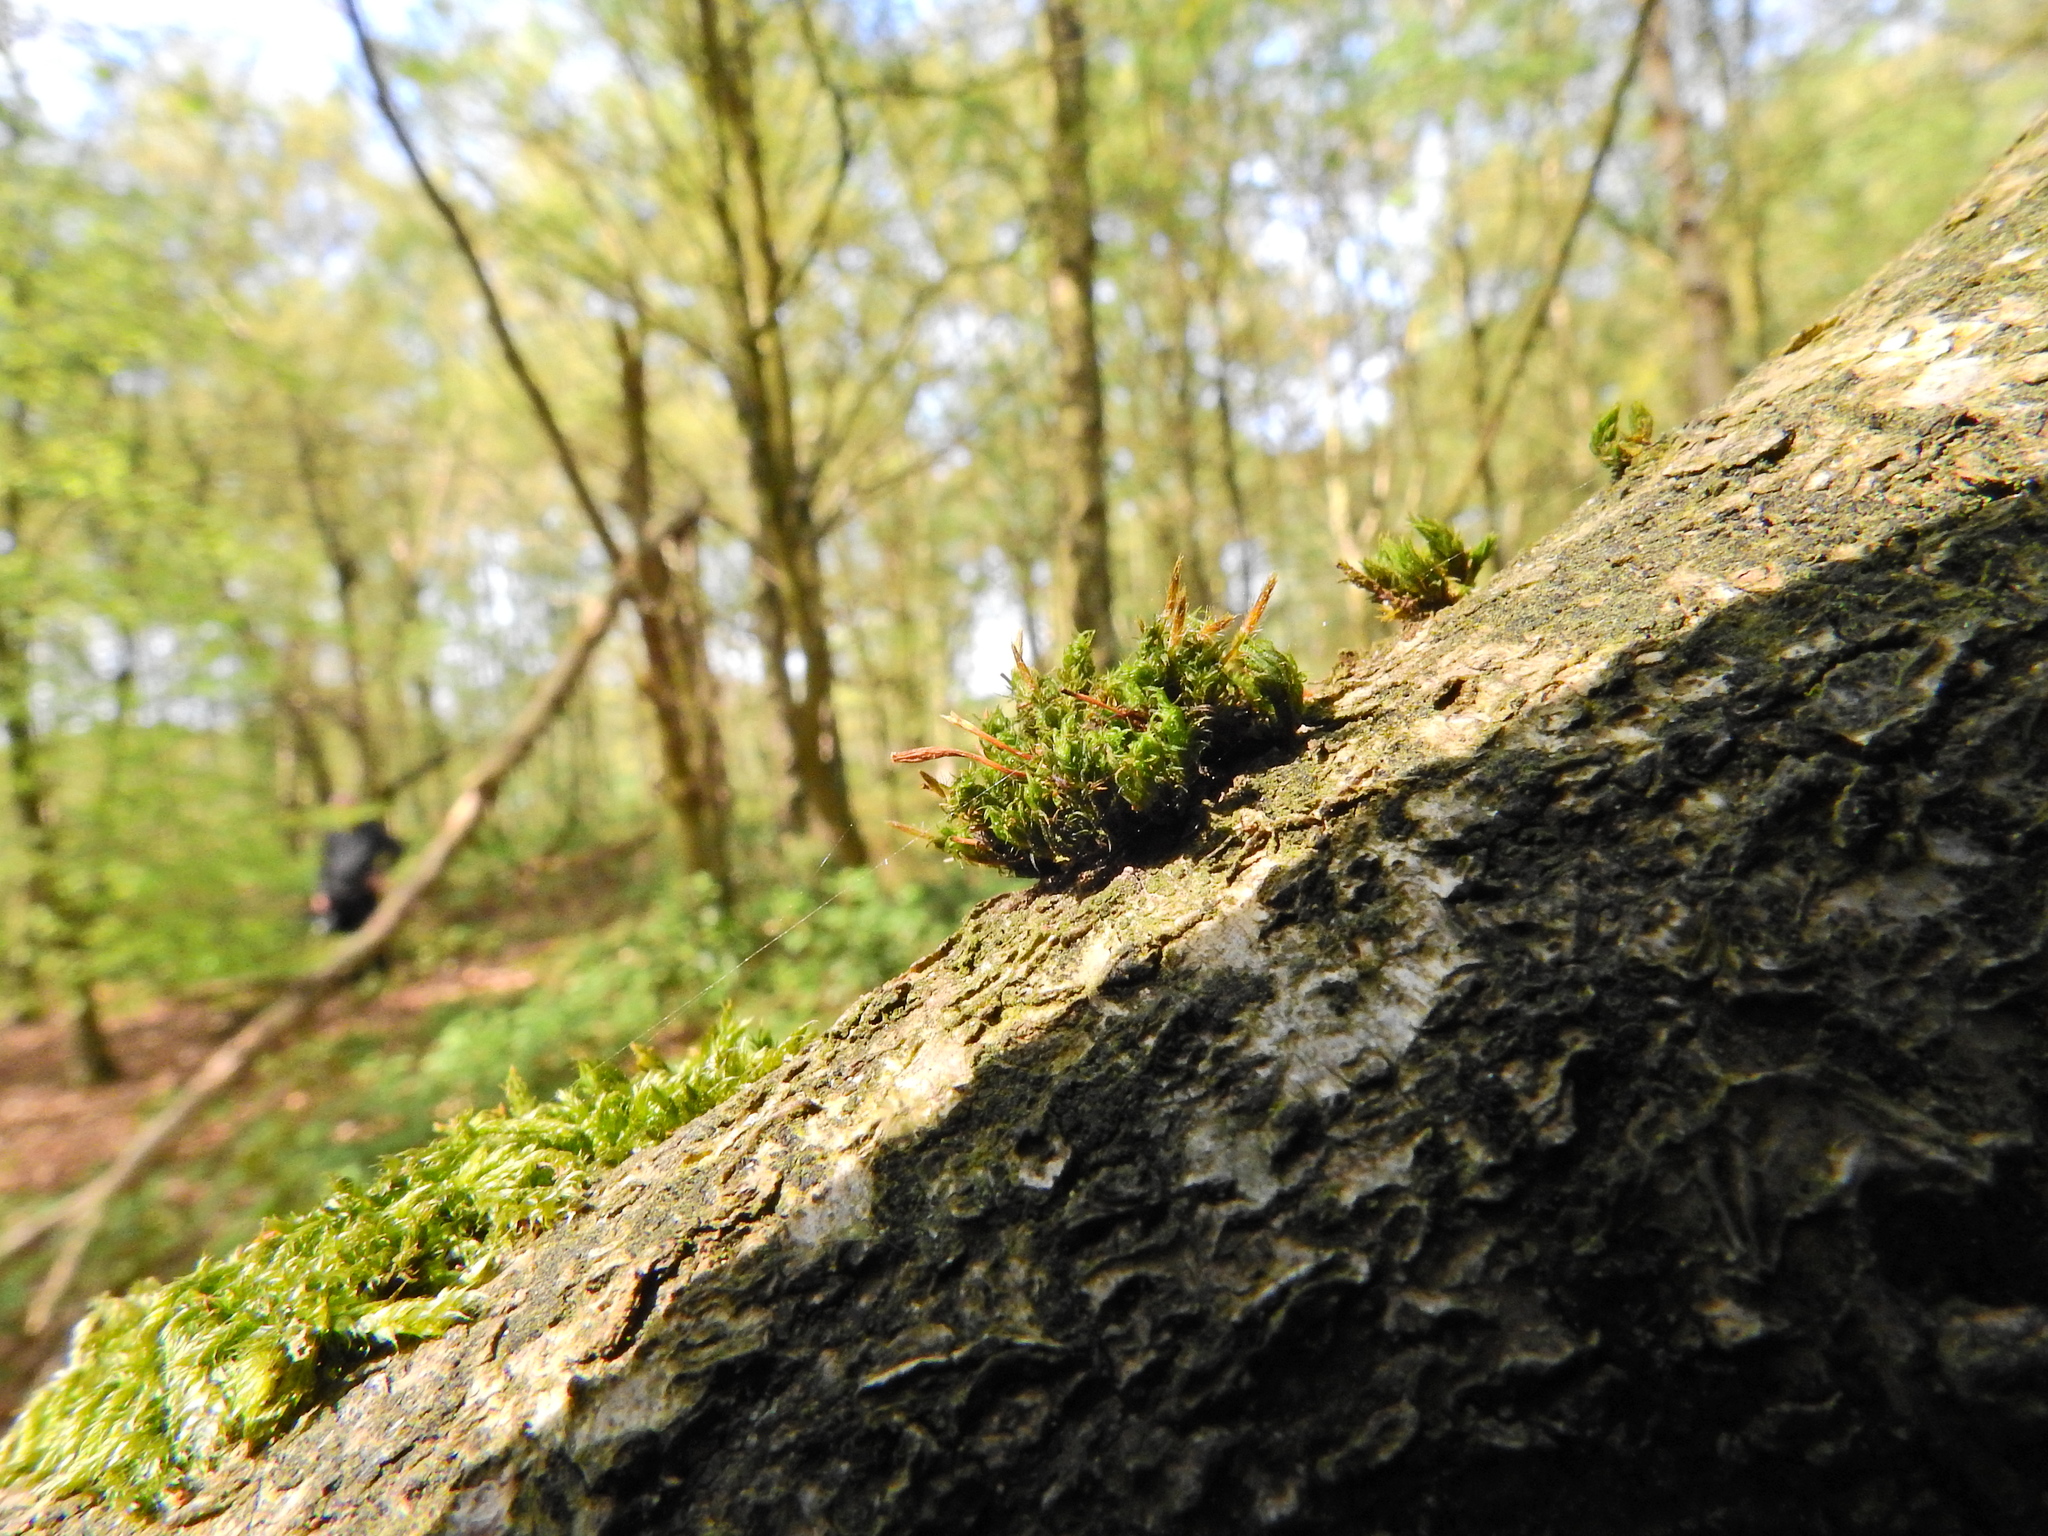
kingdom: Plantae
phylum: Bryophyta
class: Bryopsida
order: Orthotrichales
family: Orthotrichaceae
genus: Ulota
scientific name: Ulota crispa
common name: Crisped pincushion moss
